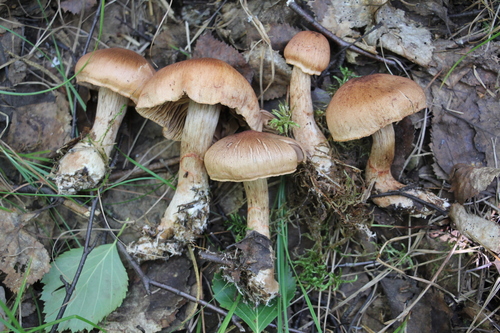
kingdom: Fungi
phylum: Basidiomycota
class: Agaricomycetes
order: Agaricales
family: Cortinariaceae
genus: Cortinarius
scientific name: Cortinarius armillatus
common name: Red banded webcap
